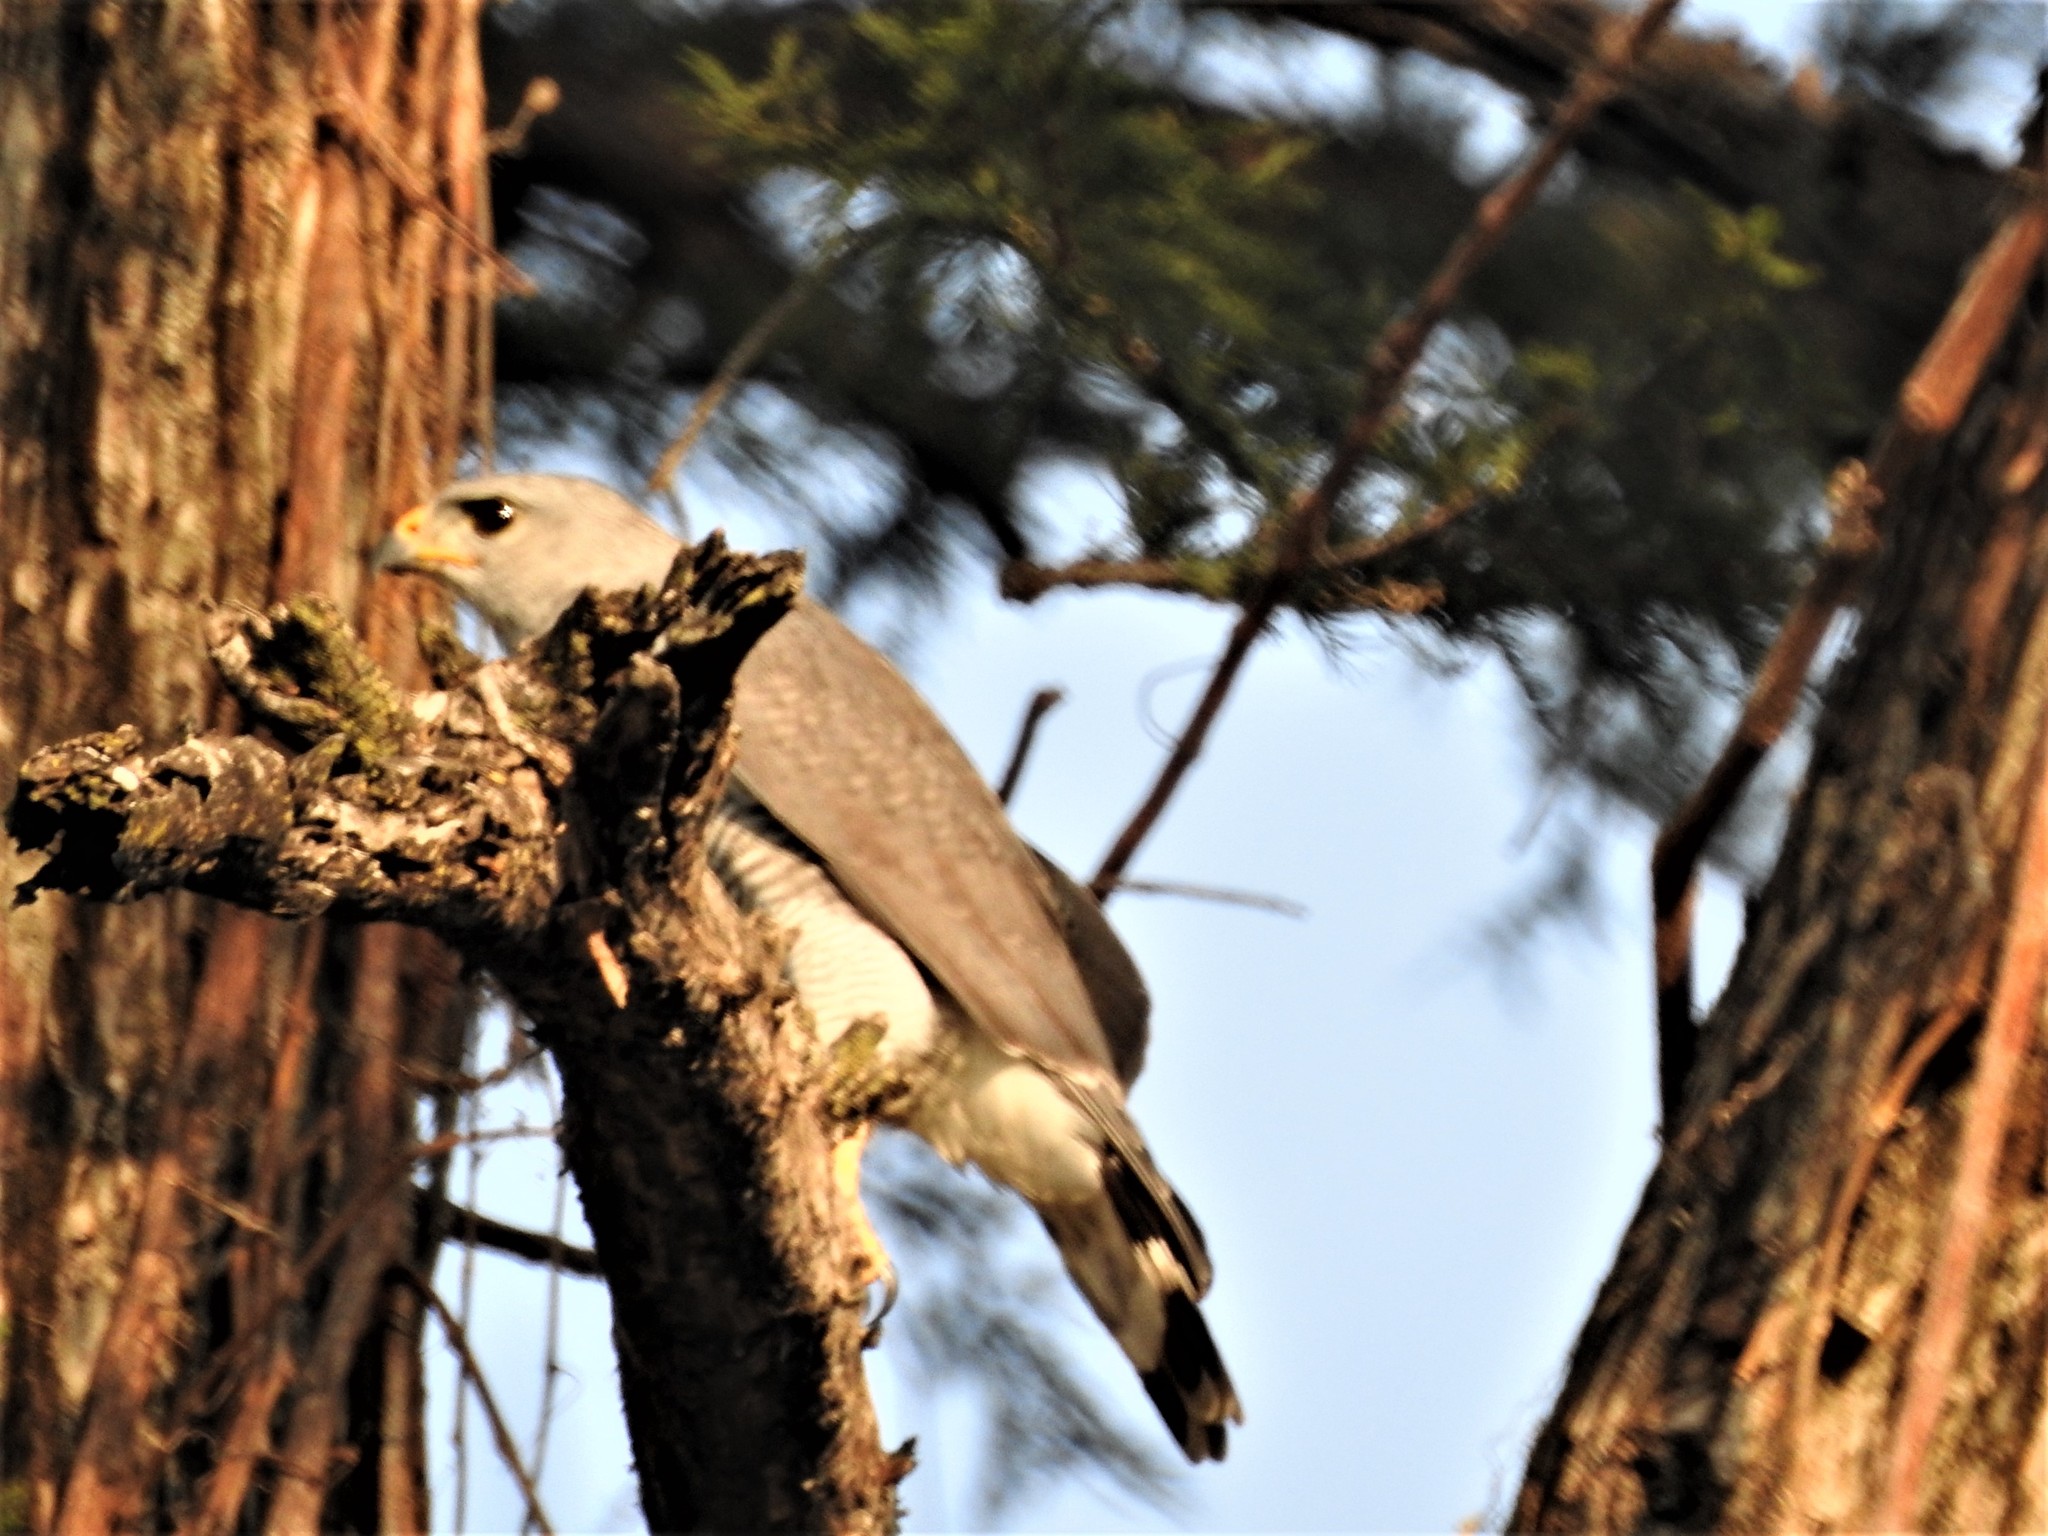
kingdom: Animalia
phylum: Chordata
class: Aves
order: Accipitriformes
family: Accipitridae
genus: Buteo
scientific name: Buteo nitidus
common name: Grey-lined hawk
